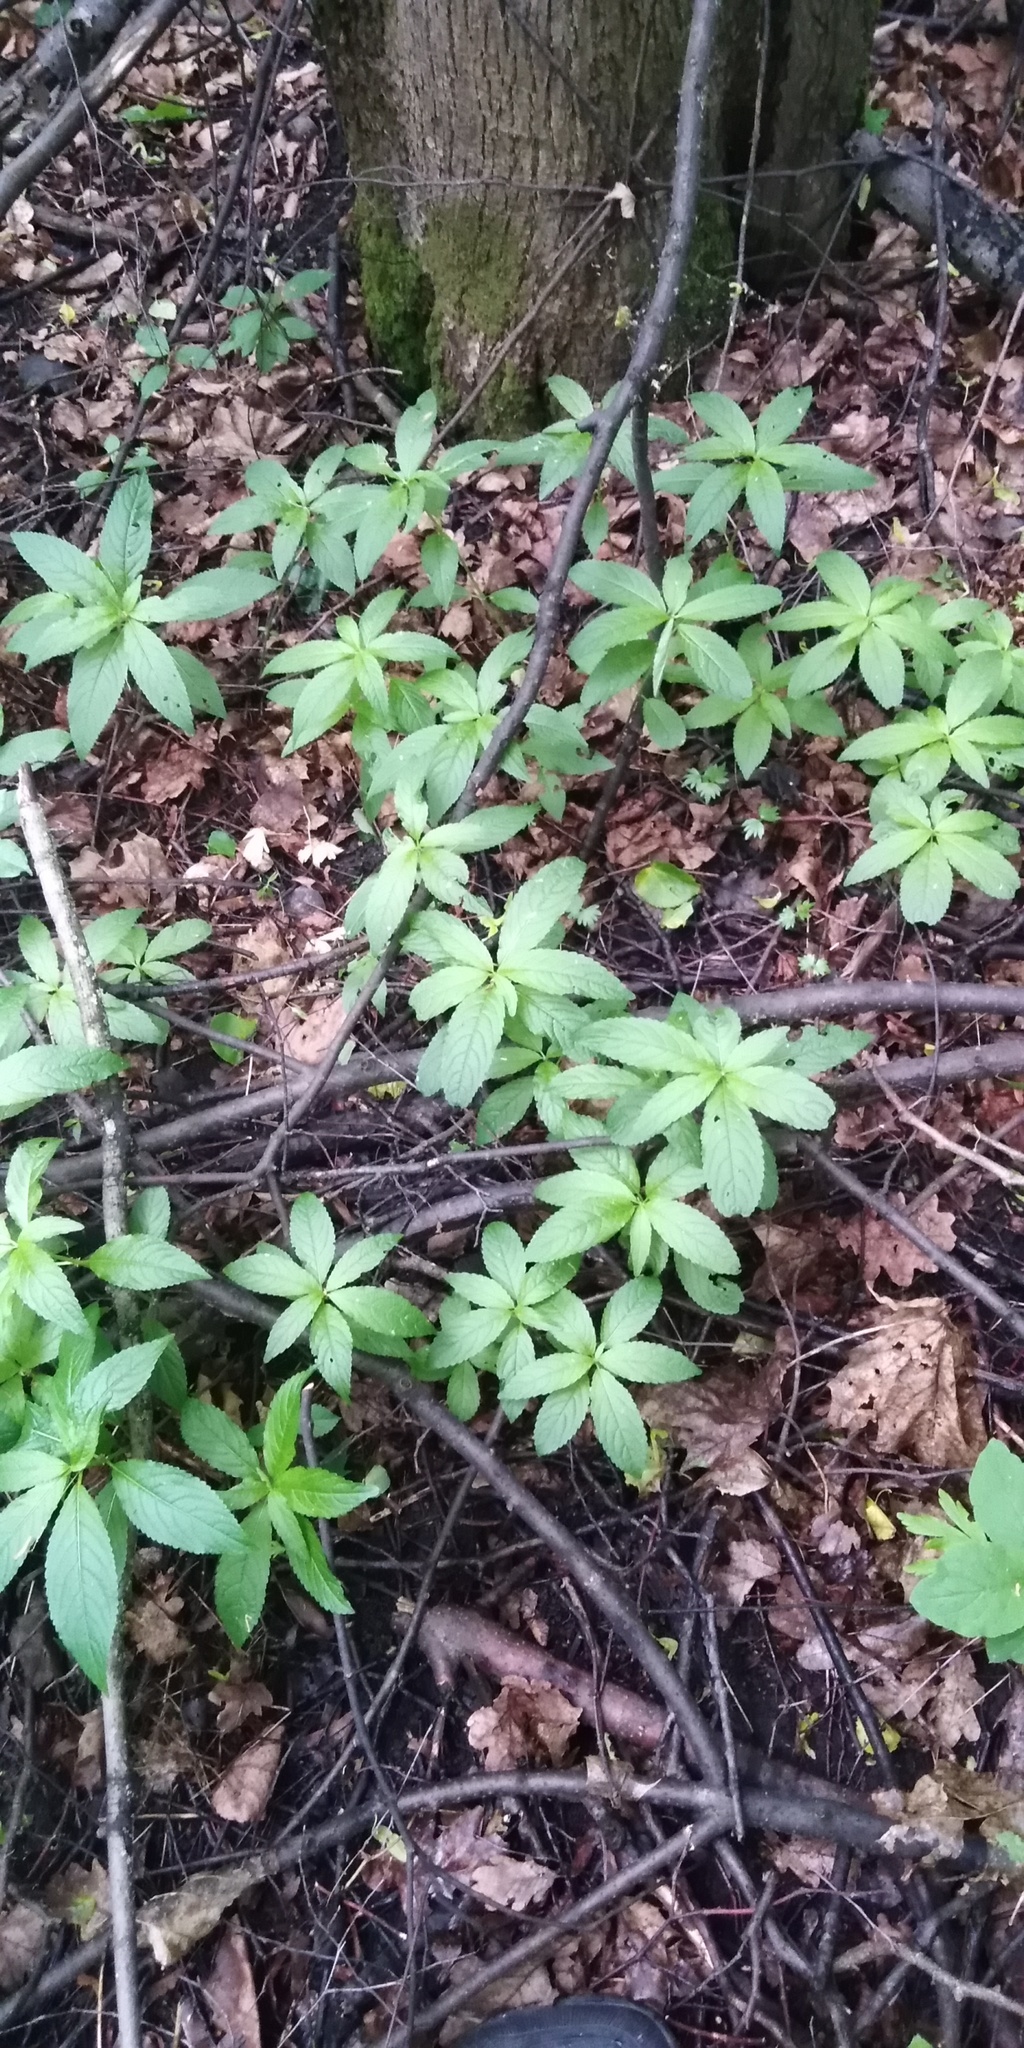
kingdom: Plantae
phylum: Tracheophyta
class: Magnoliopsida
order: Malpighiales
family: Euphorbiaceae
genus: Mercurialis
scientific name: Mercurialis perennis
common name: Dog mercury
